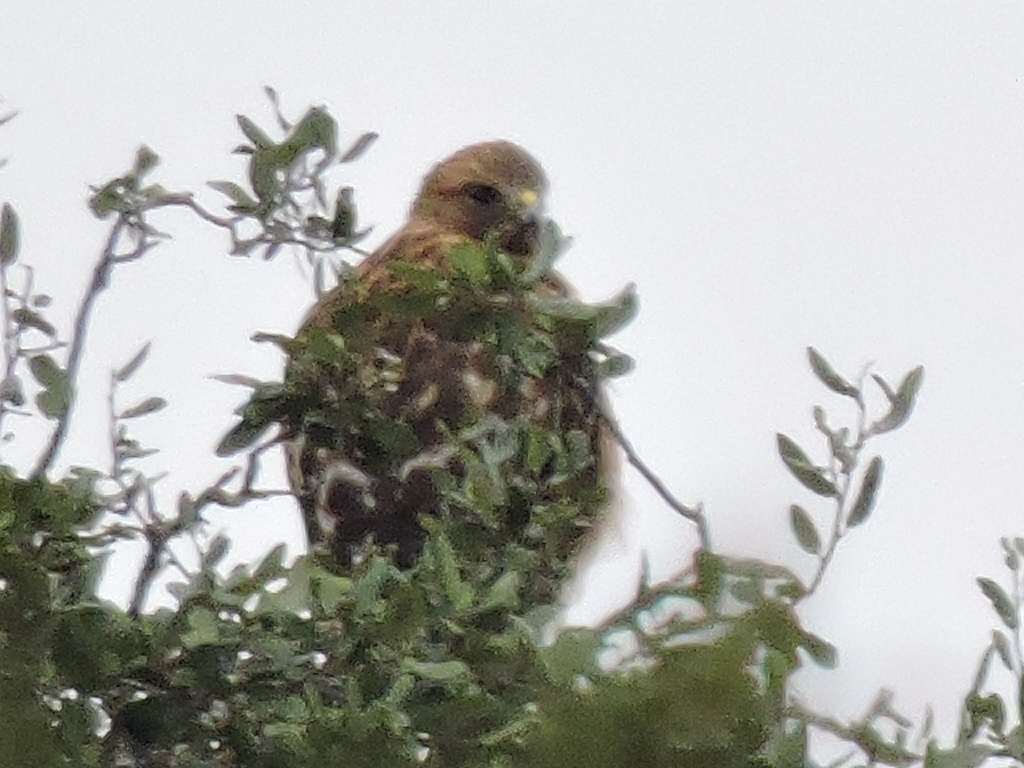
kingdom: Animalia
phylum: Chordata
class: Aves
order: Accipitriformes
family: Accipitridae
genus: Buteo
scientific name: Buteo lineatus
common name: Red-shouldered hawk
